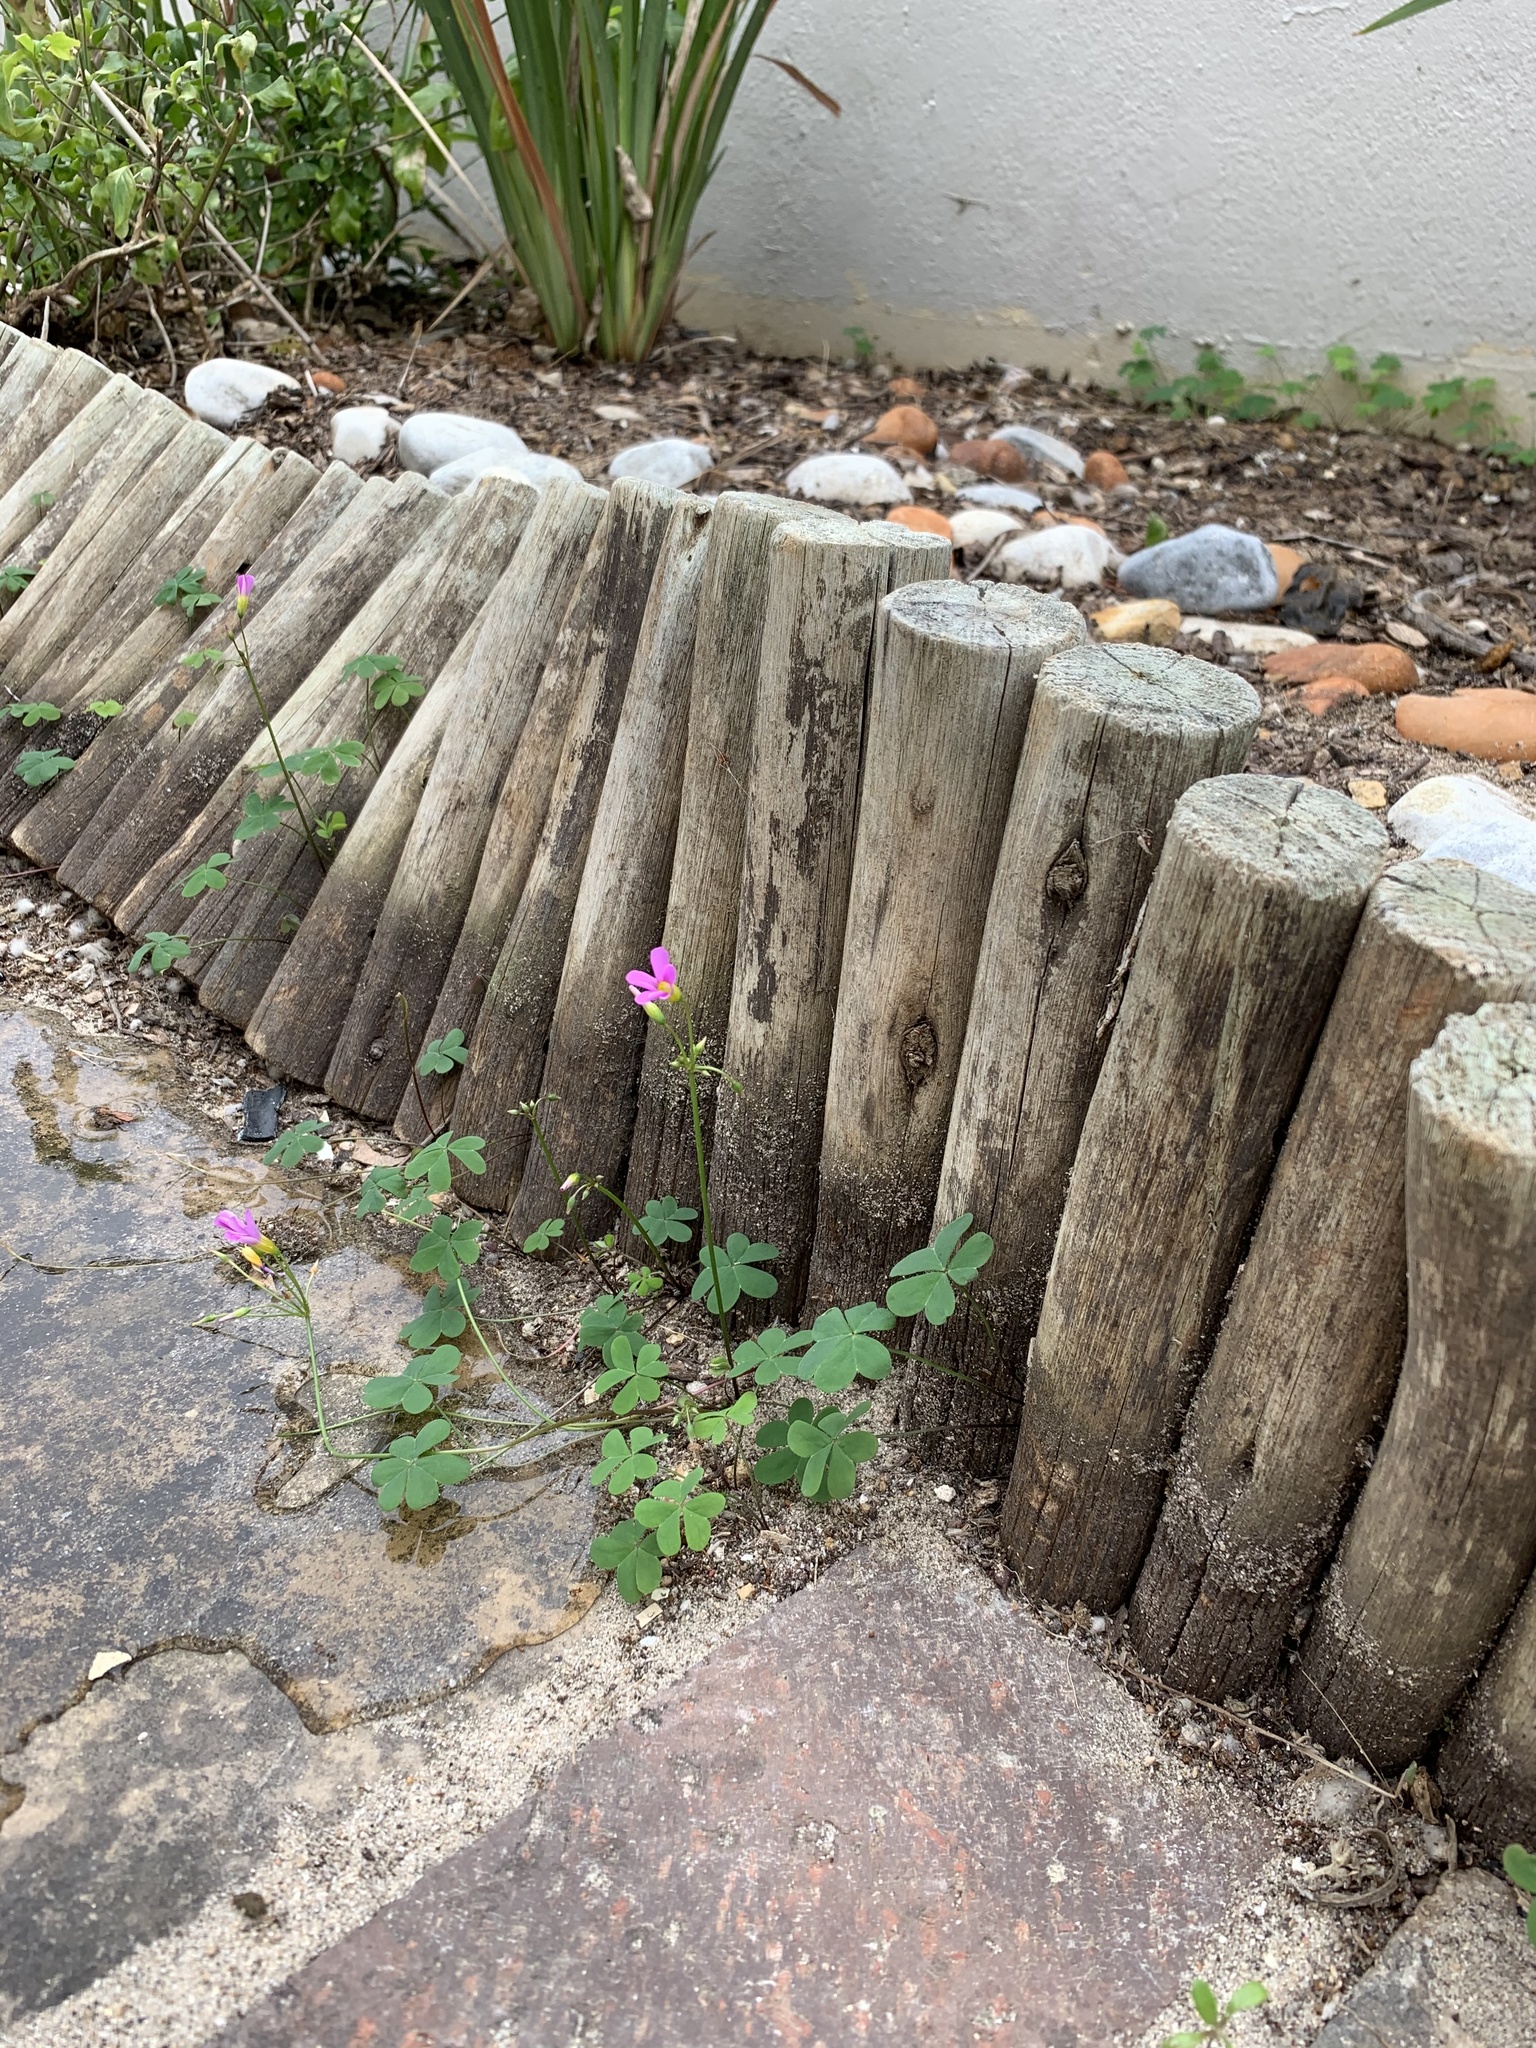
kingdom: Plantae
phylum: Tracheophyta
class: Magnoliopsida
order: Oxalidales
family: Oxalidaceae
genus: Oxalis
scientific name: Oxalis caprina
